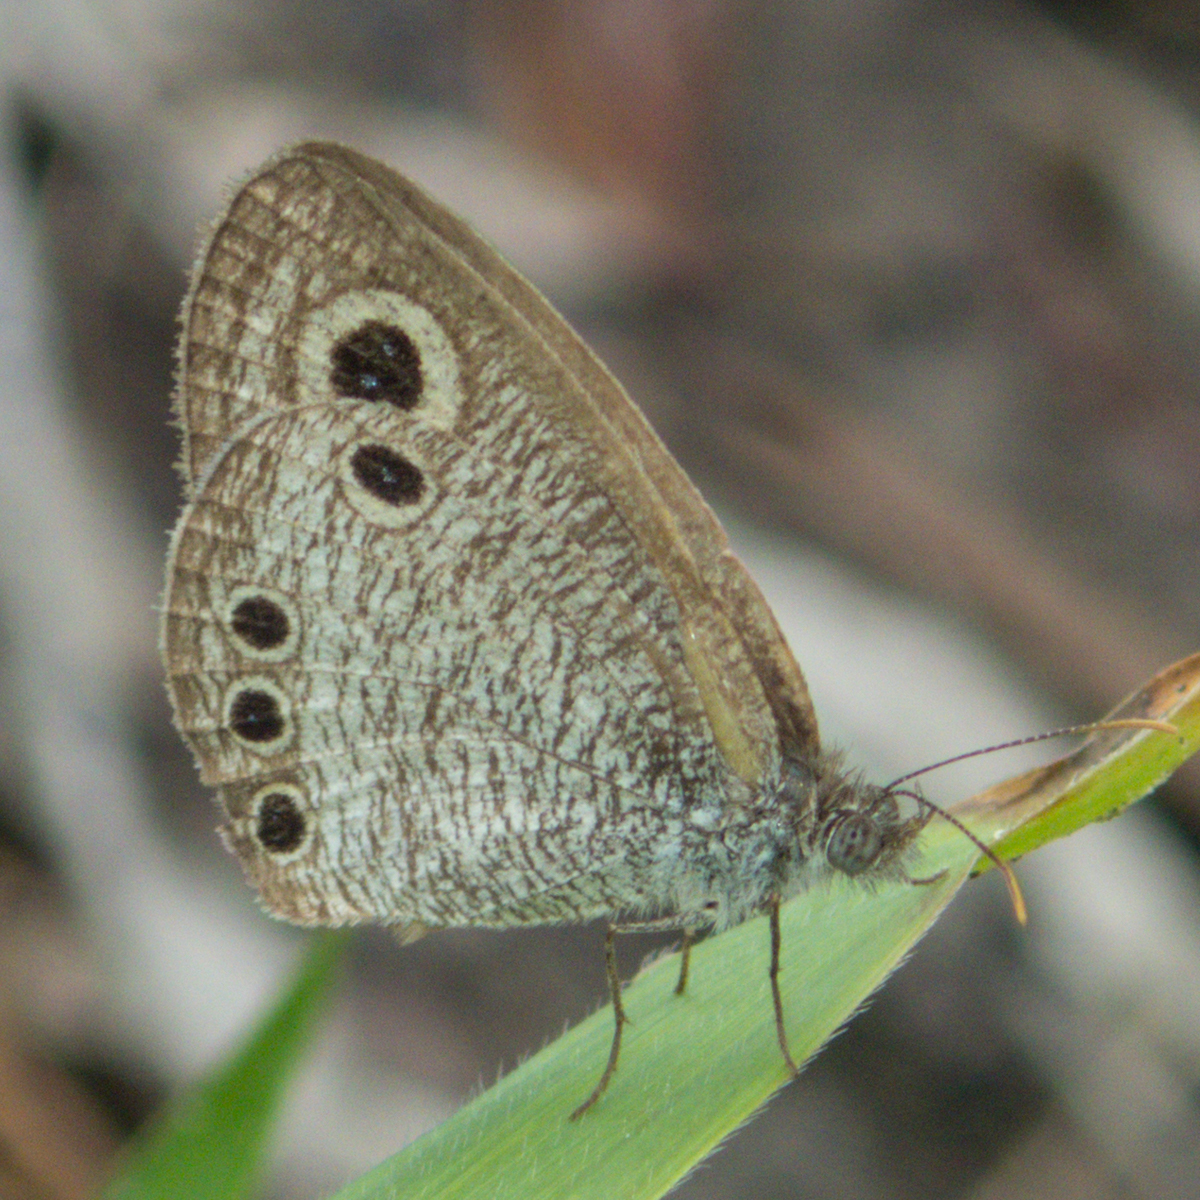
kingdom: Animalia
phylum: Arthropoda
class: Insecta
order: Lepidoptera
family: Nymphalidae
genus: Ypthima
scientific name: Ypthima huebneri
